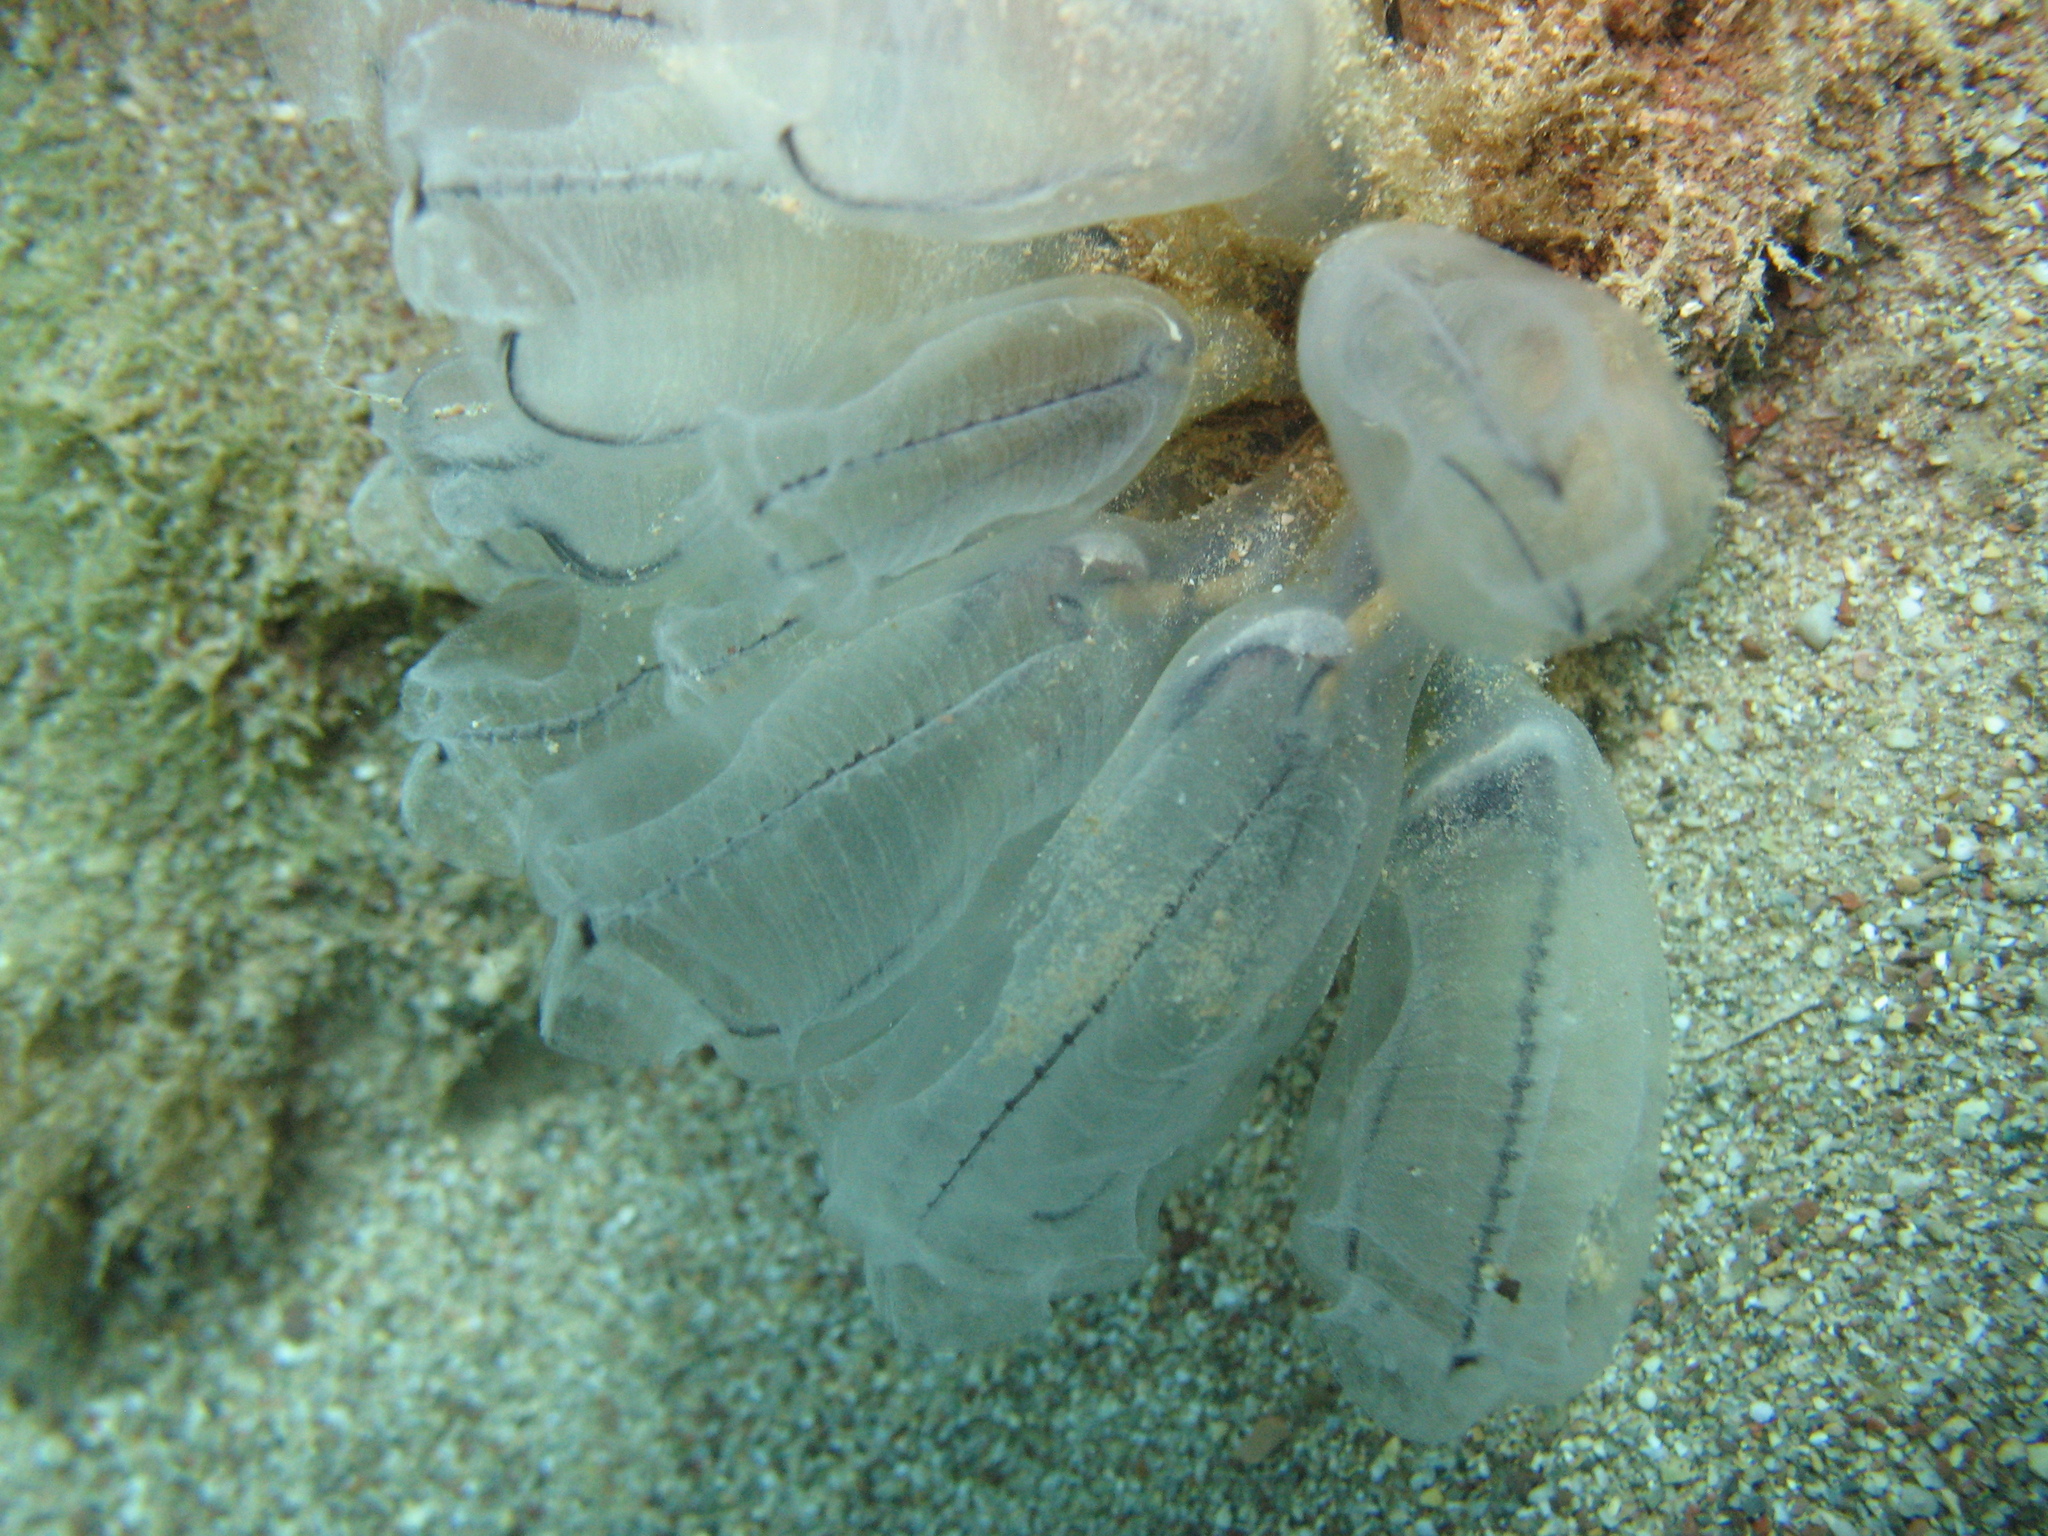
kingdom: Animalia
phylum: Chordata
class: Ascidiacea
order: Aplousobranchia
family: Clavelinidae
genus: Clavelina
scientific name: Clavelina dellavallei
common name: Bluestriped light bulb tunicate
